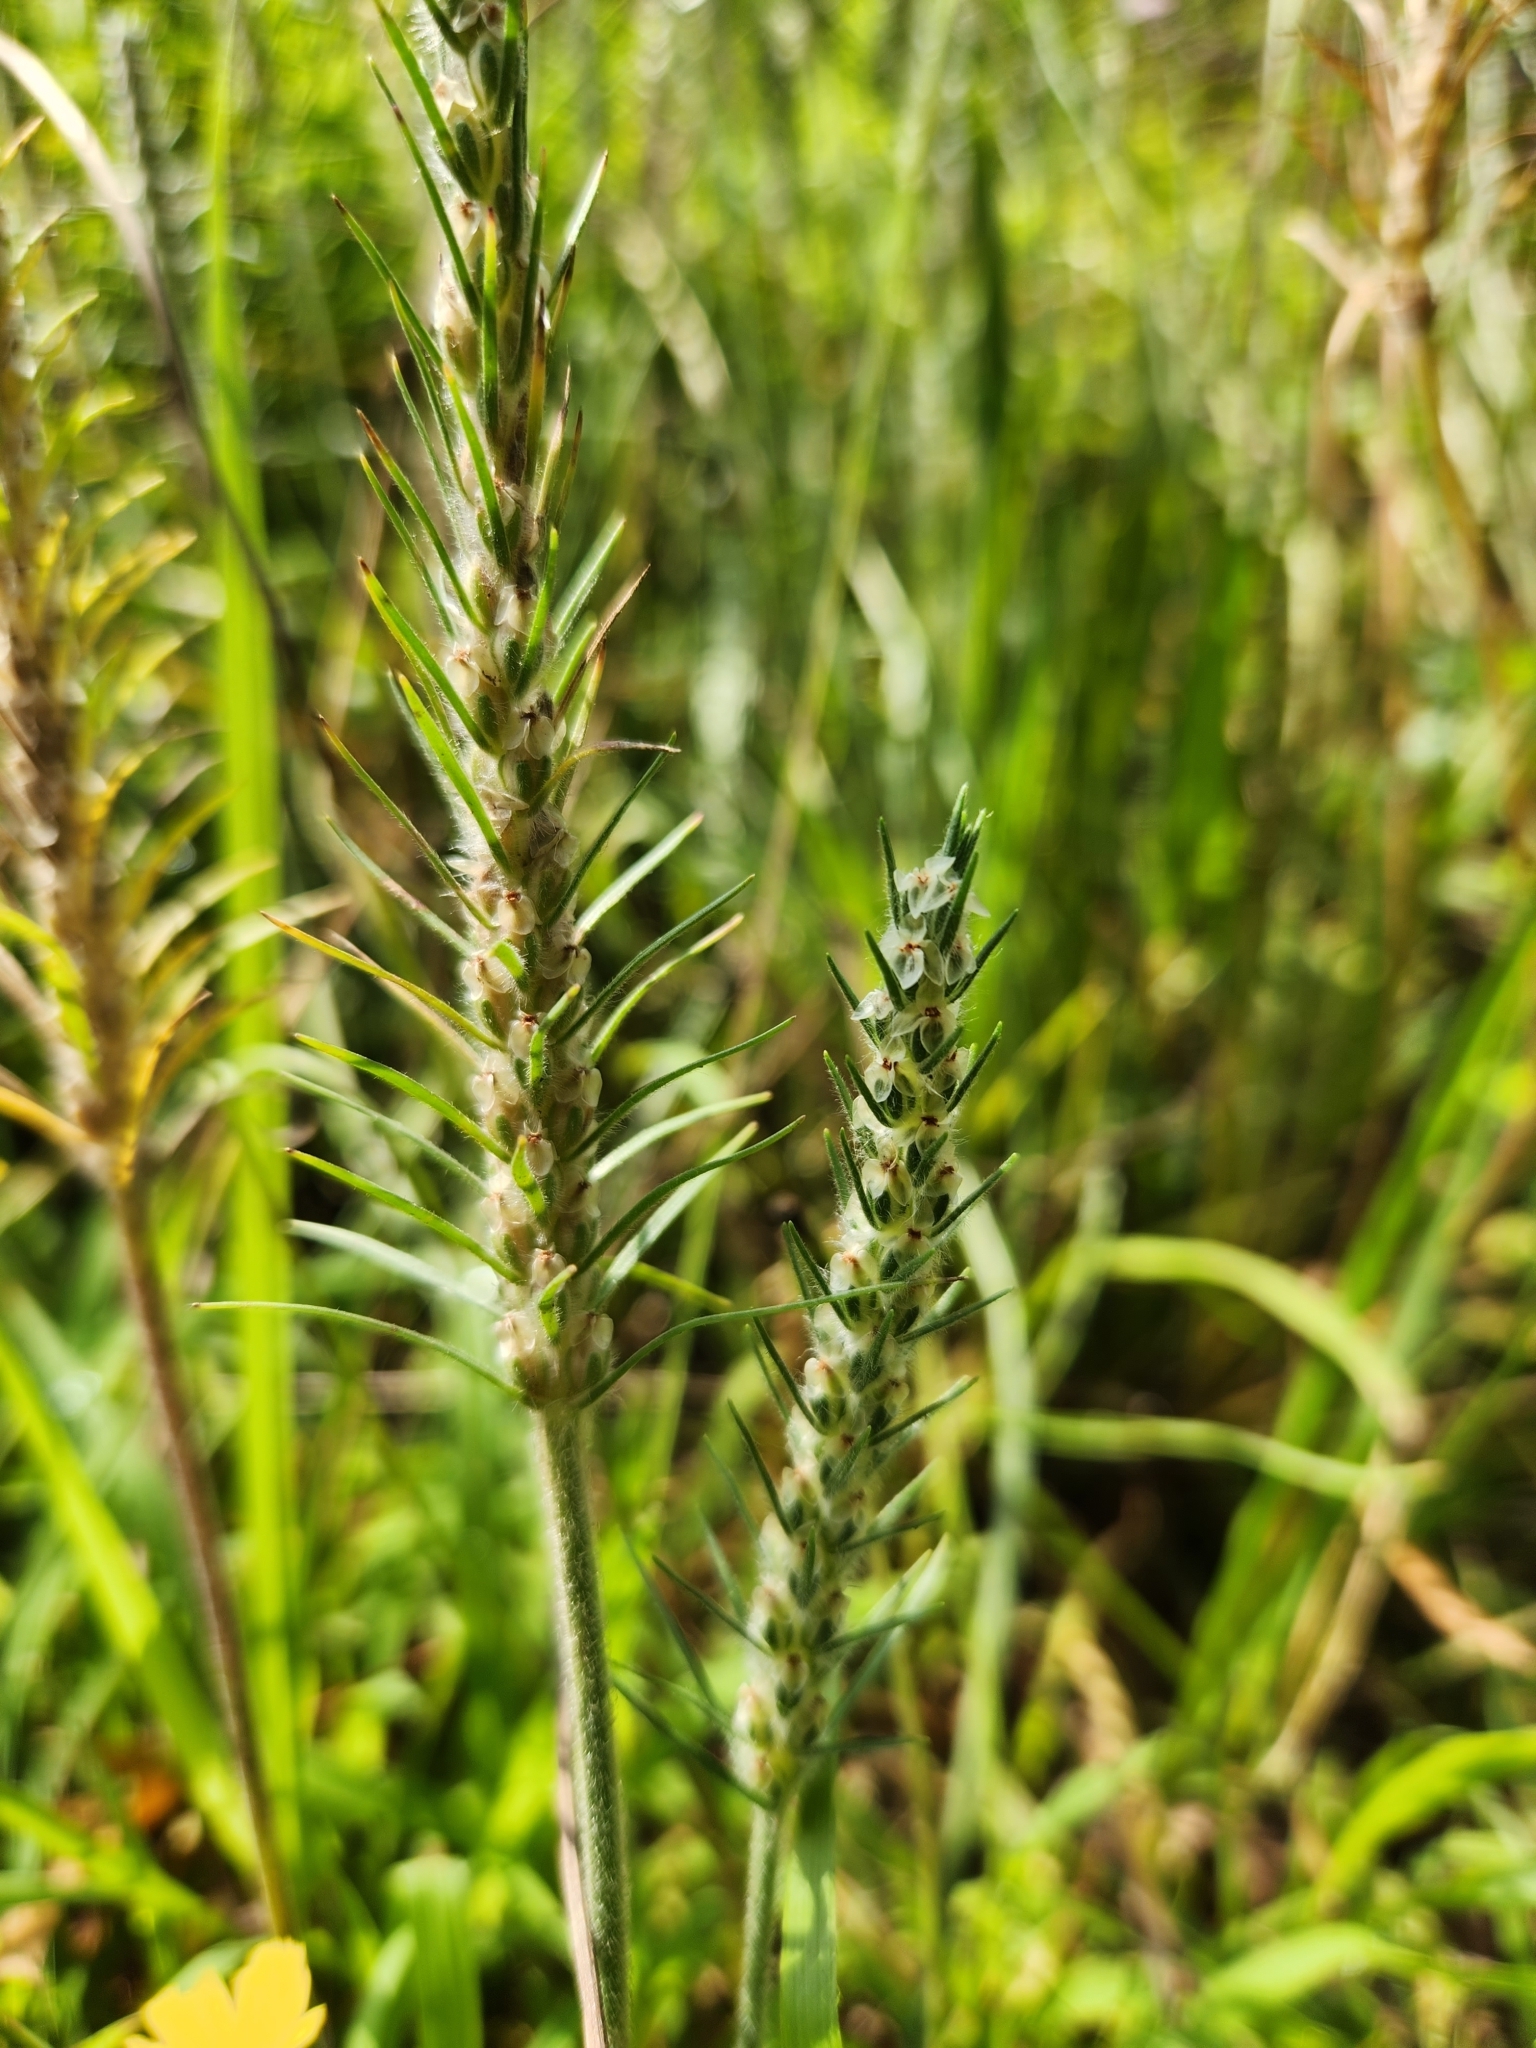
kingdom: Plantae
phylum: Tracheophyta
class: Magnoliopsida
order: Lamiales
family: Plantaginaceae
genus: Plantago
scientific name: Plantago aristata
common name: Bracted plantain
